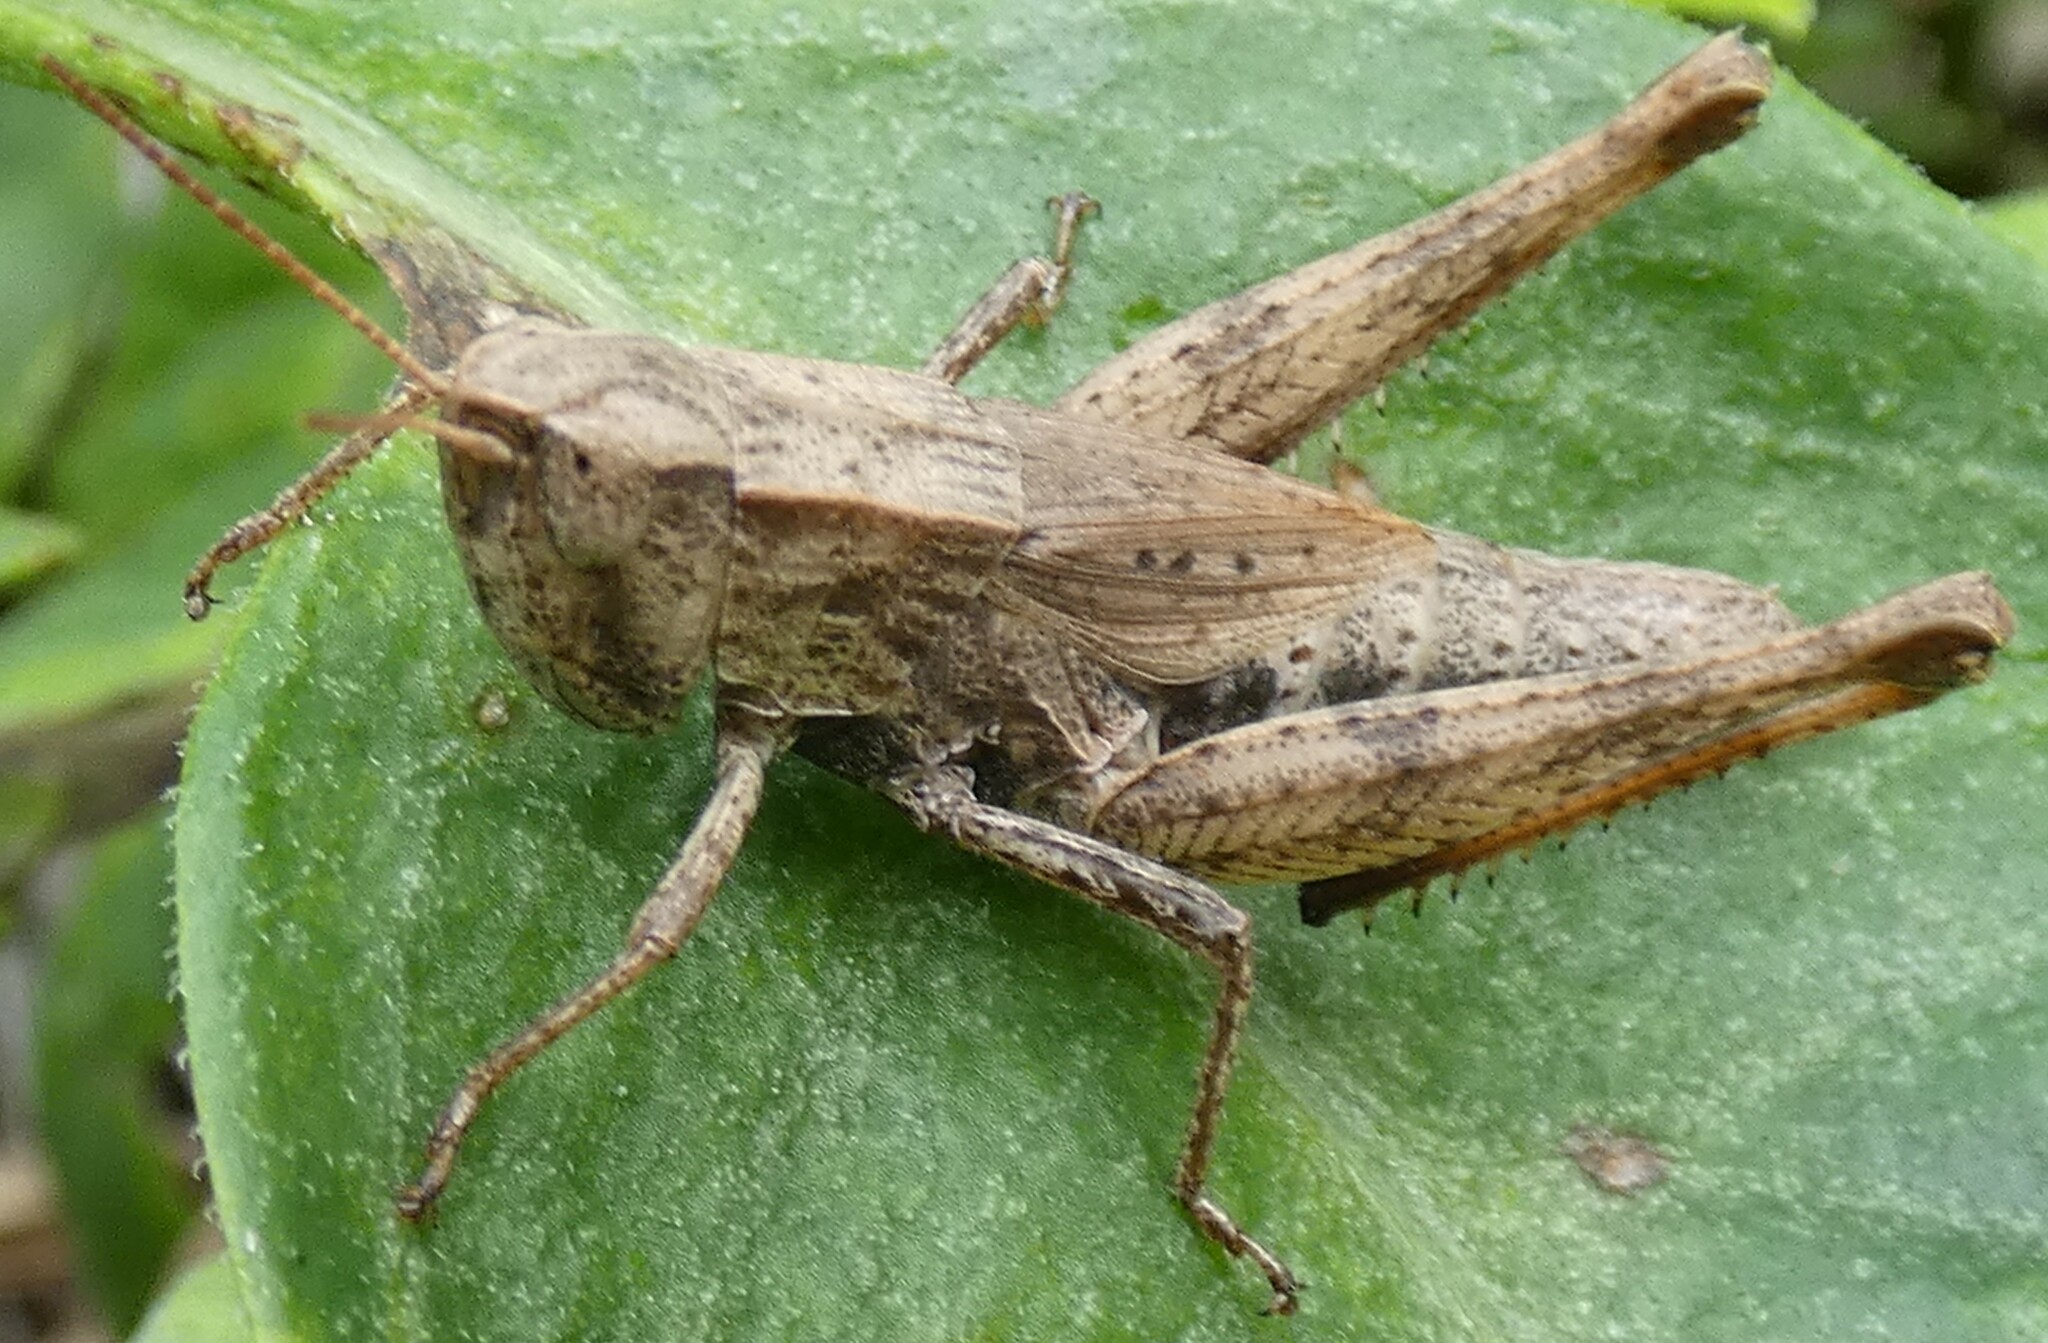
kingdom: Animalia
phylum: Arthropoda
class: Insecta
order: Orthoptera
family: Acrididae
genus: Dichromorpha
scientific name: Dichromorpha viridis
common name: Short-winged green grasshopper
